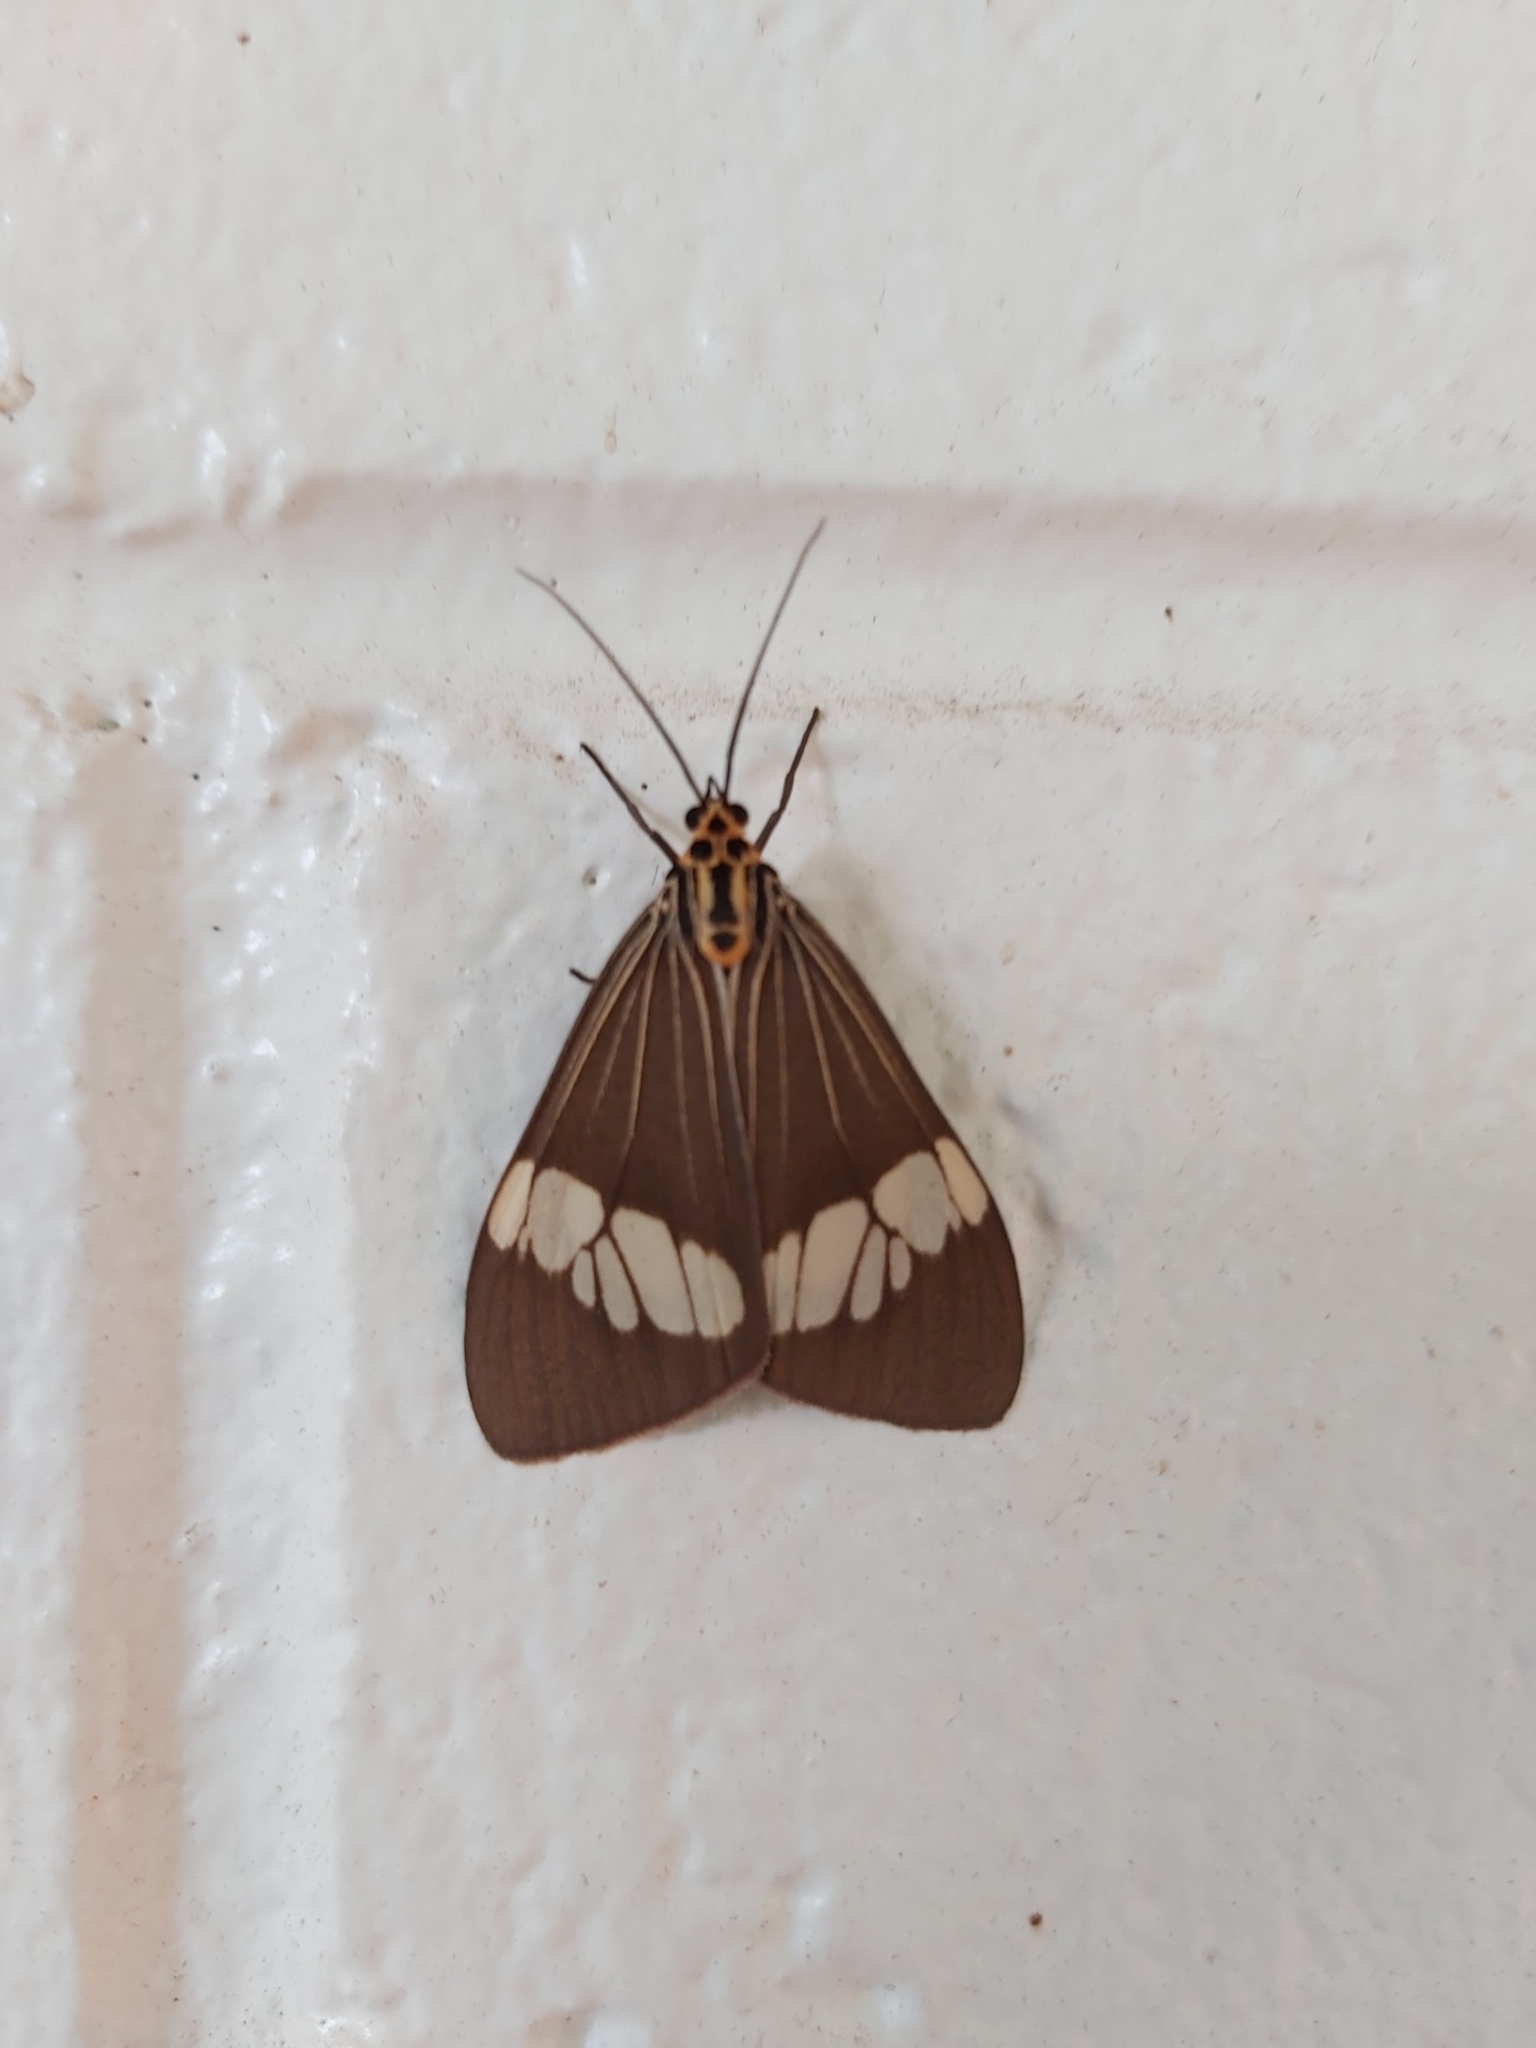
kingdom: Animalia
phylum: Arthropoda
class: Insecta
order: Lepidoptera
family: Erebidae
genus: Nyctemera
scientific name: Nyctemera baulus
